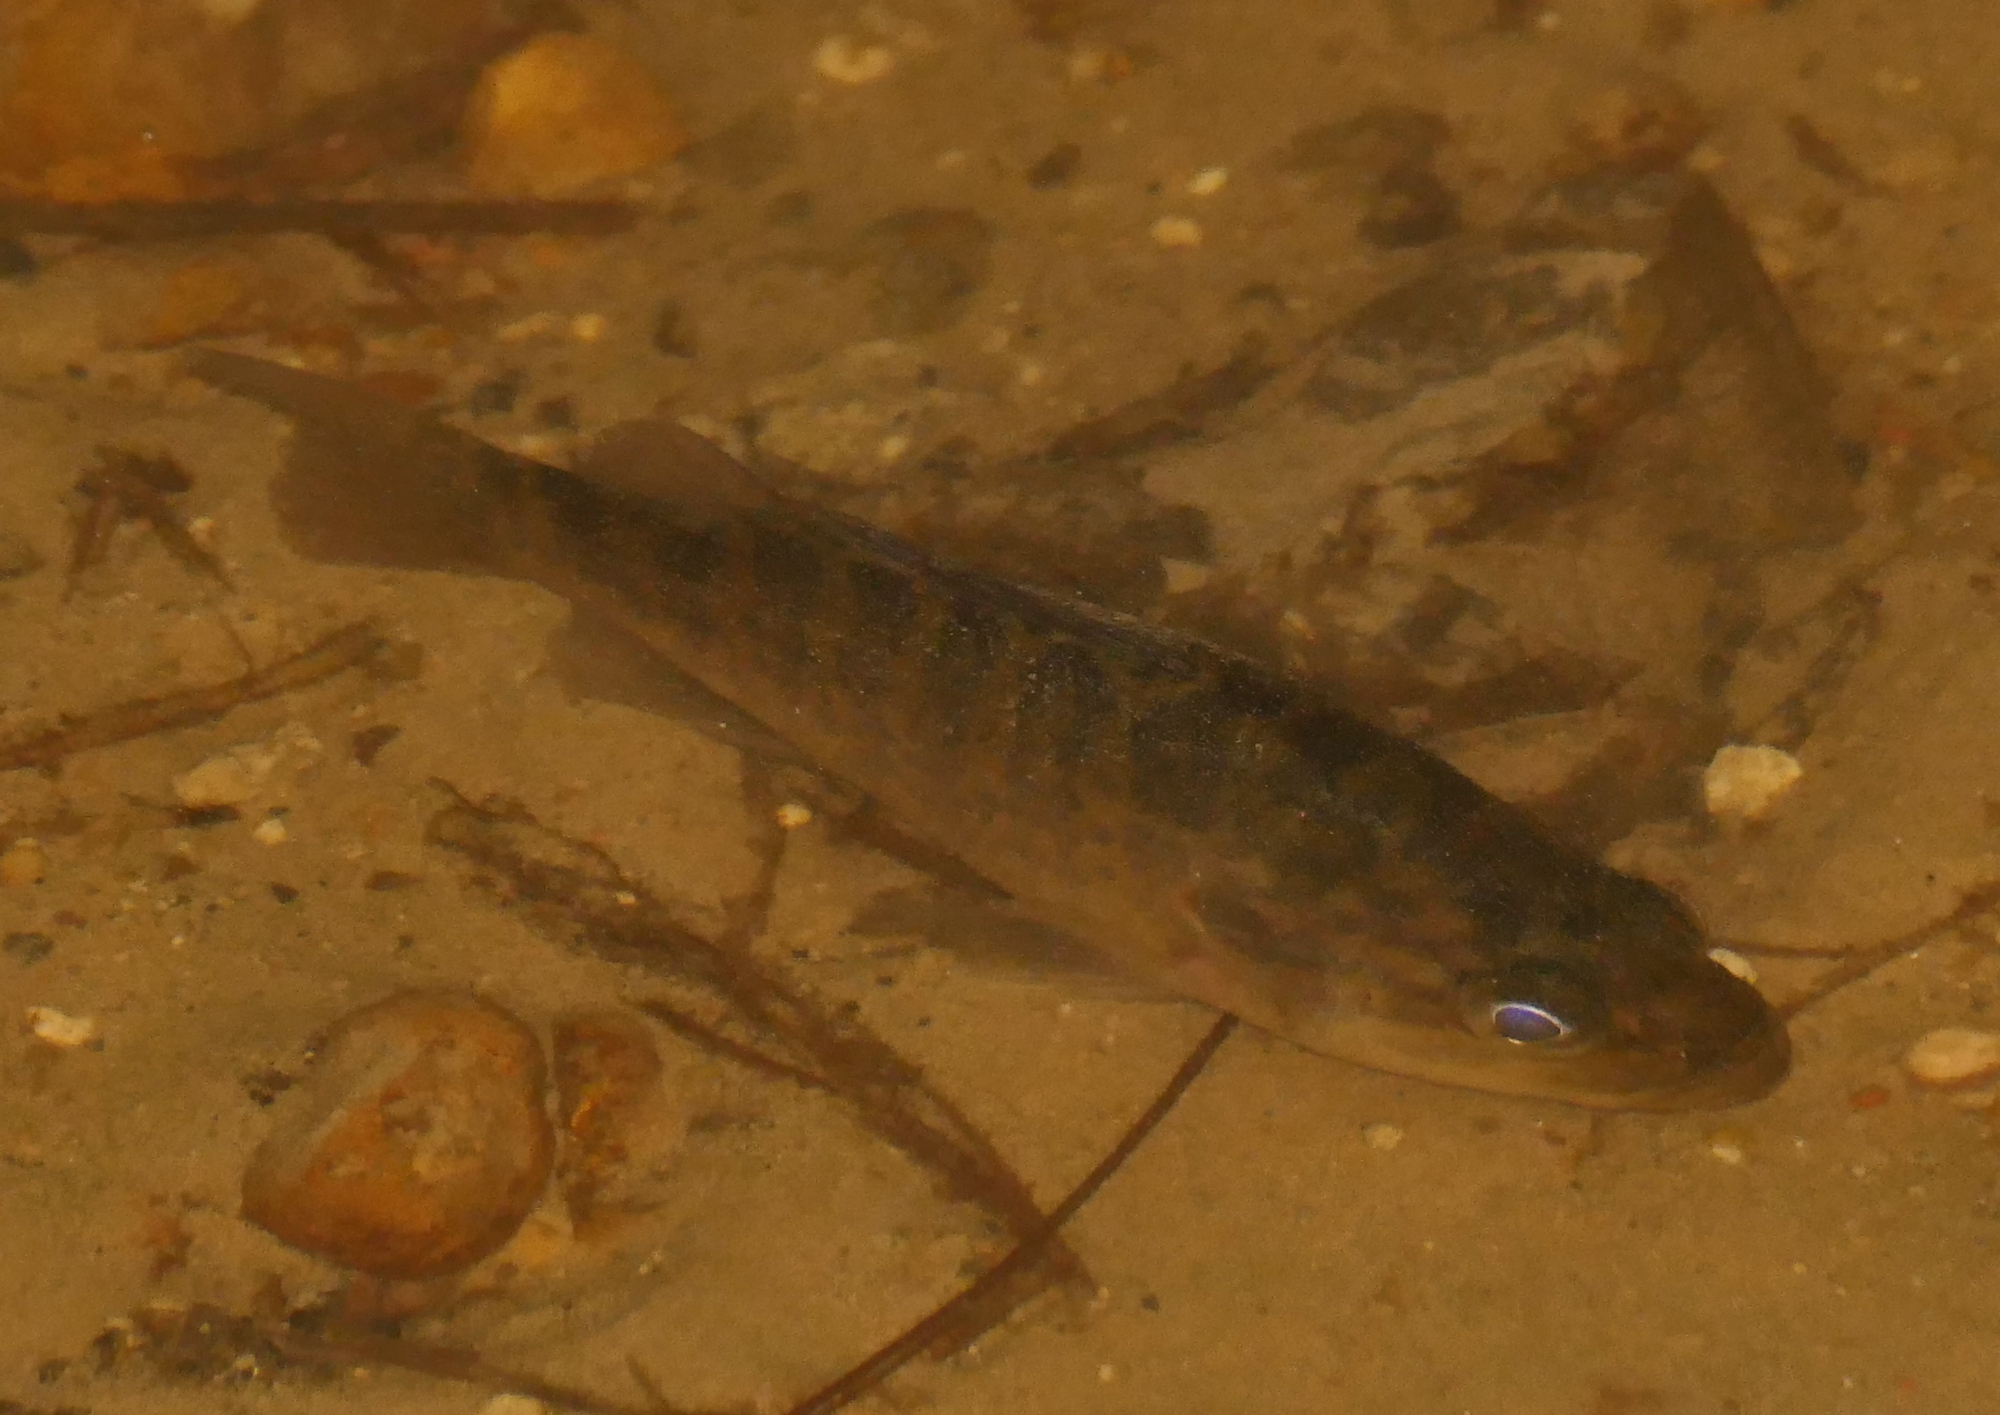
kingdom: Animalia
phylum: Chordata
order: Perciformes
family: Centrarchidae
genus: Lepomis
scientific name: Lepomis gulosus
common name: Warmouth
